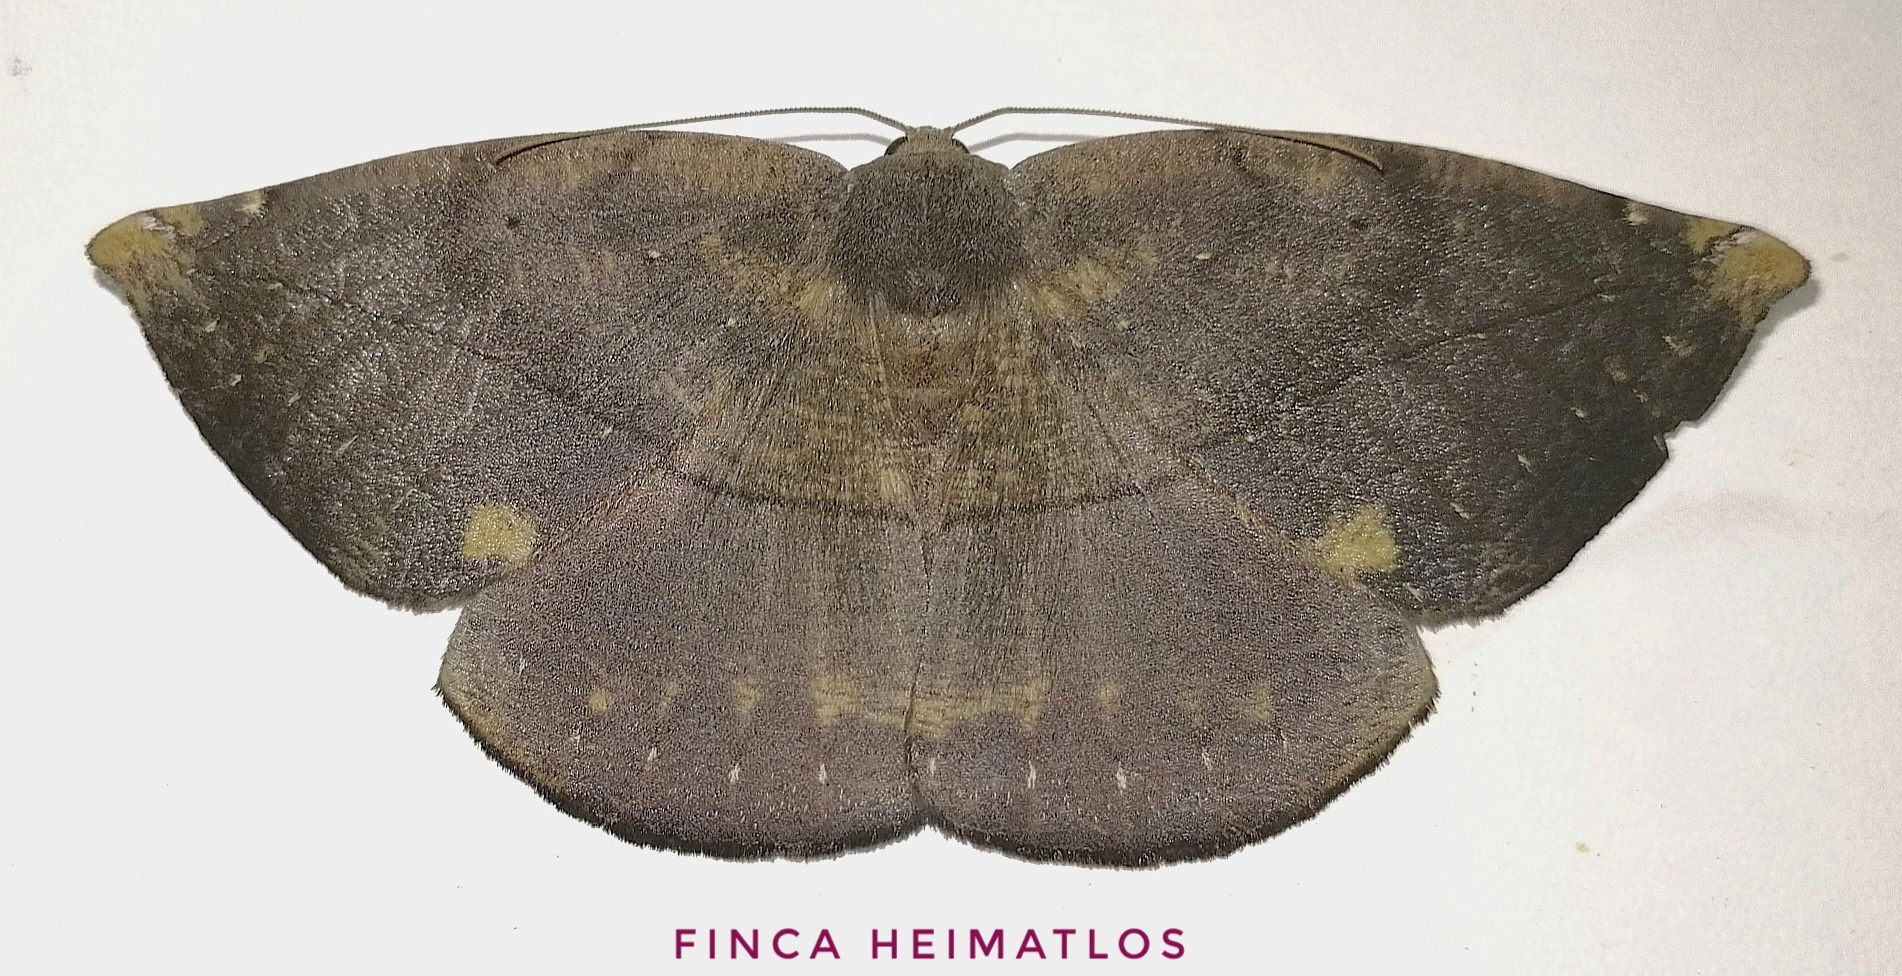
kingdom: Animalia
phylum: Arthropoda
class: Insecta
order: Lepidoptera
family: Geometridae
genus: Oxydia
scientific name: Oxydia agliata
